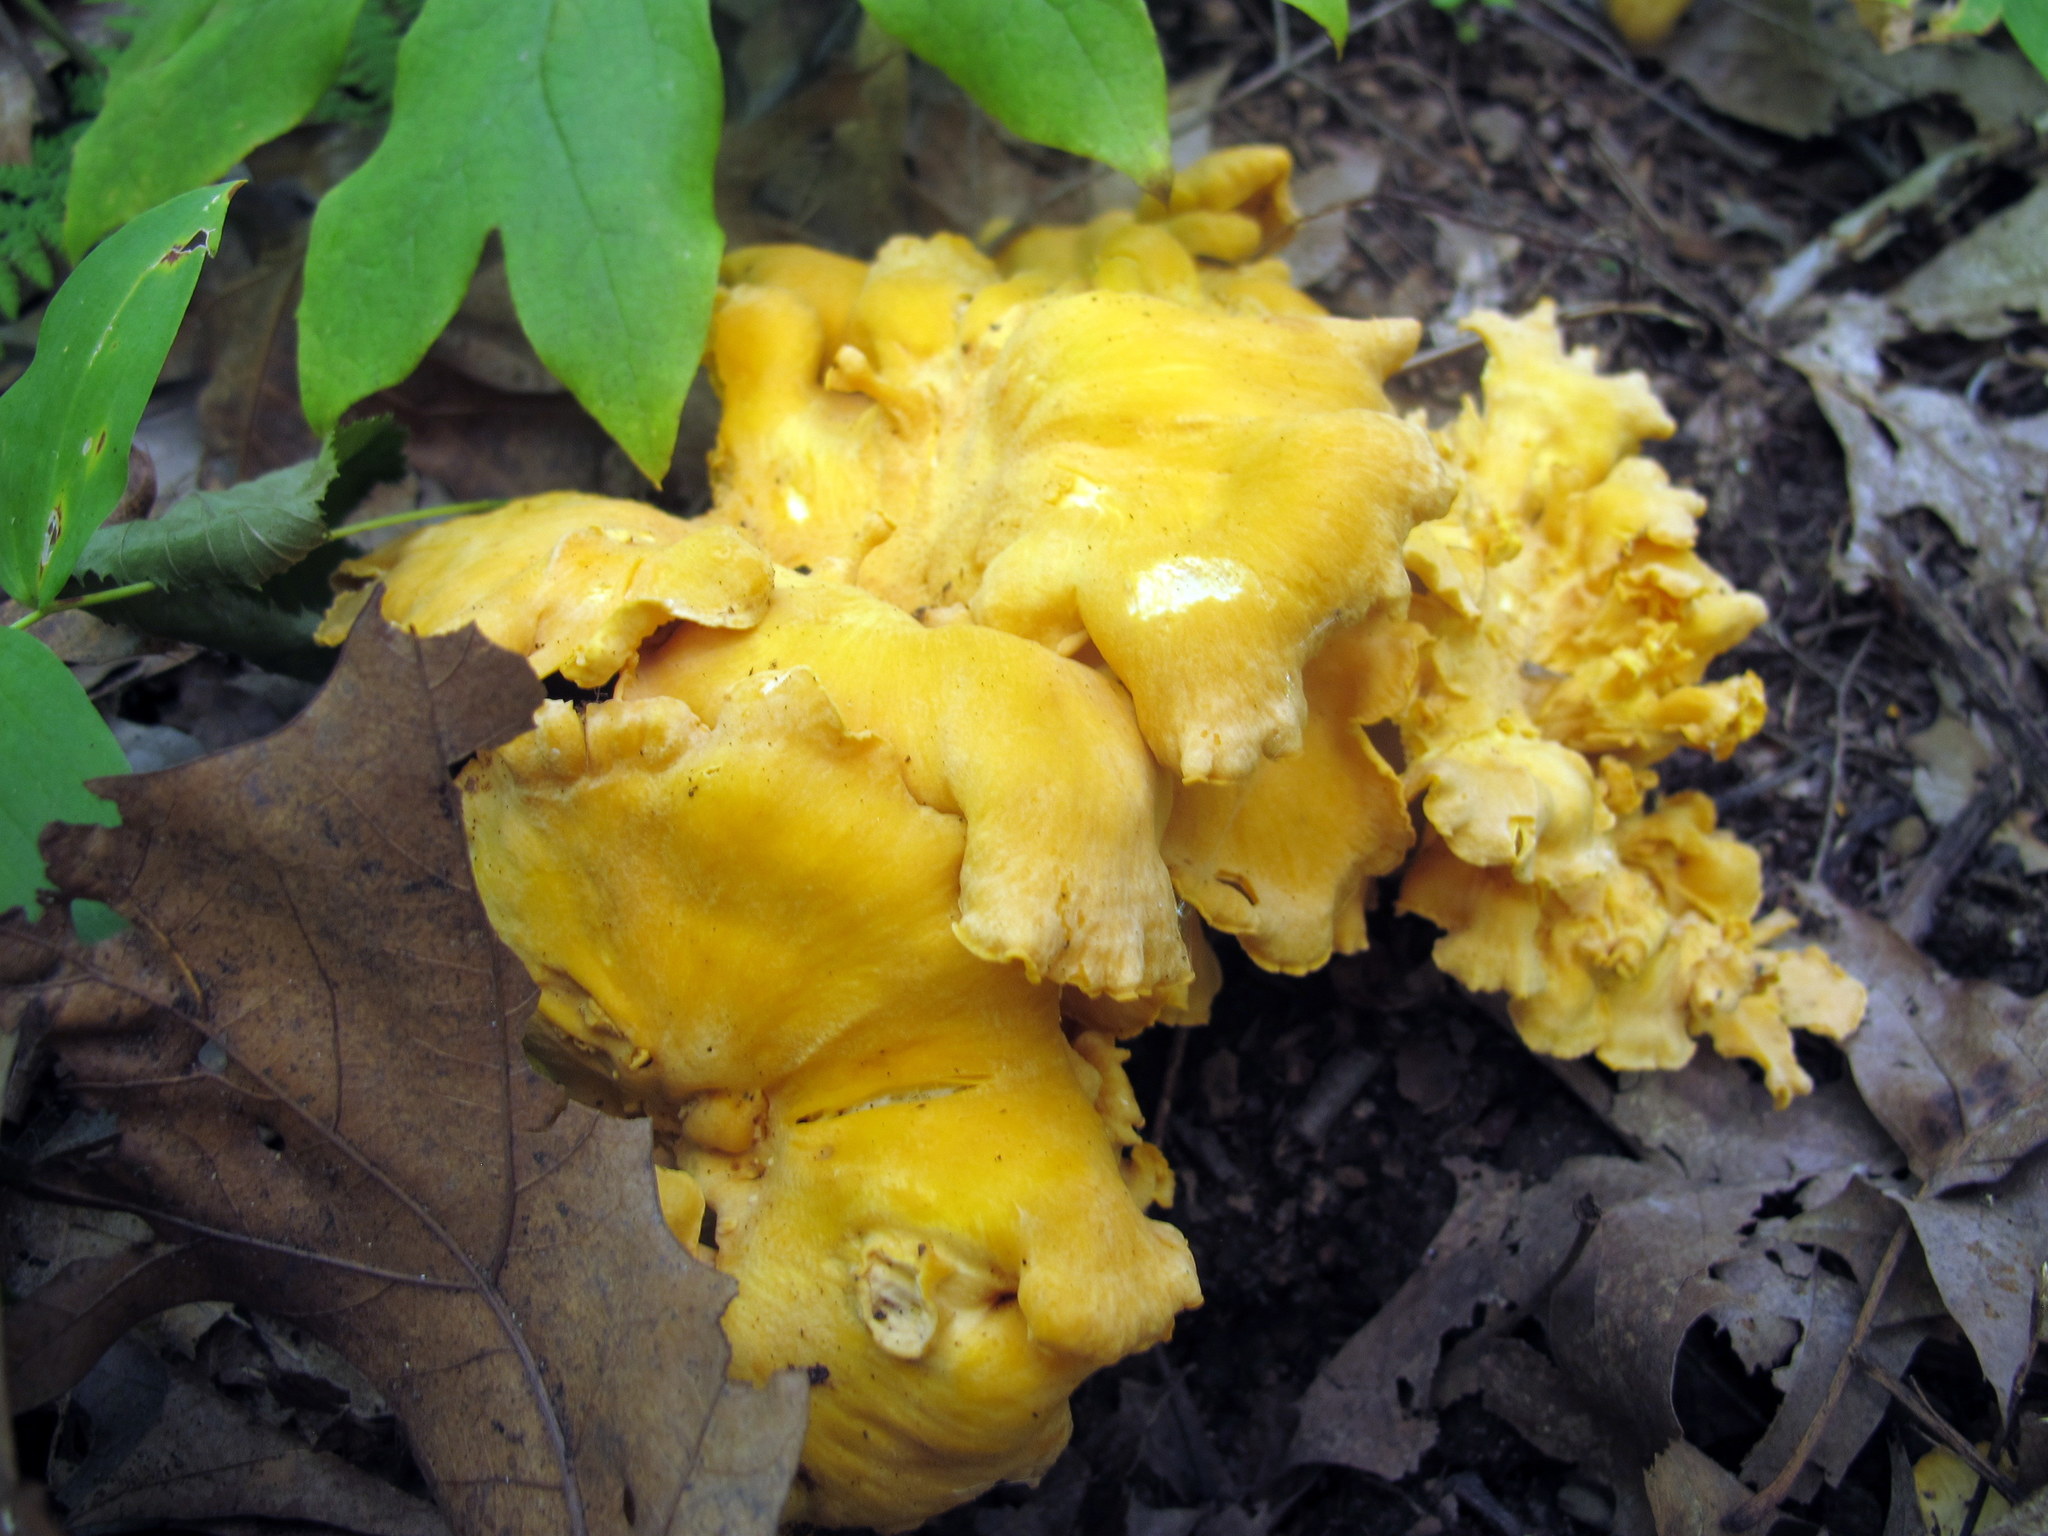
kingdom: Fungi
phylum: Basidiomycota
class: Agaricomycetes
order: Cantharellales
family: Hydnaceae
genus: Cantharellus
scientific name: Cantharellus lateritius
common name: Smooth chanterelle
